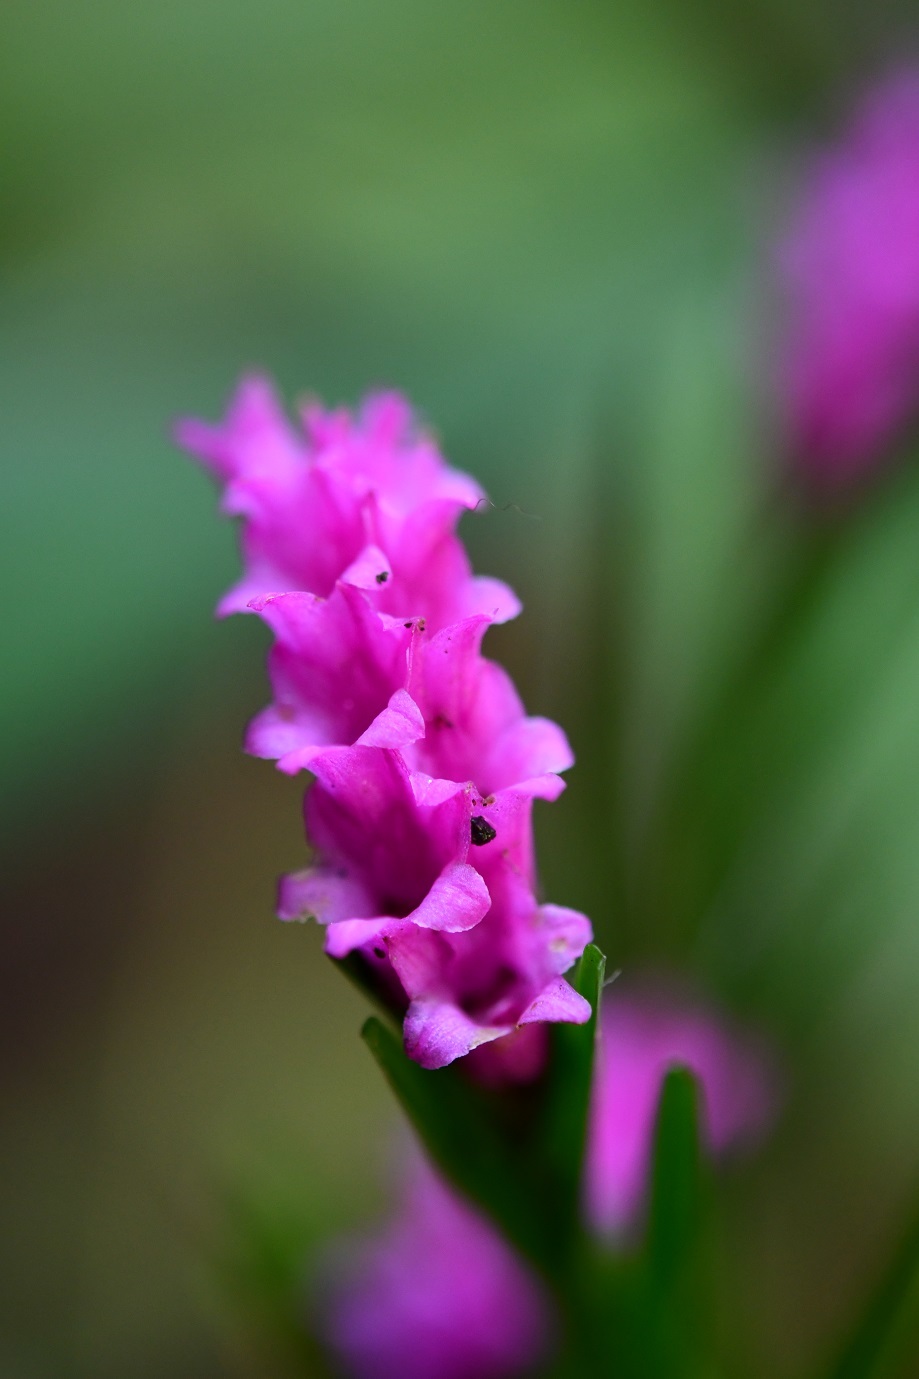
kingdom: Plantae
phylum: Tracheophyta
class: Liliopsida
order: Asparagales
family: Orchidaceae
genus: Isochilus
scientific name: Isochilus latibracteatus
